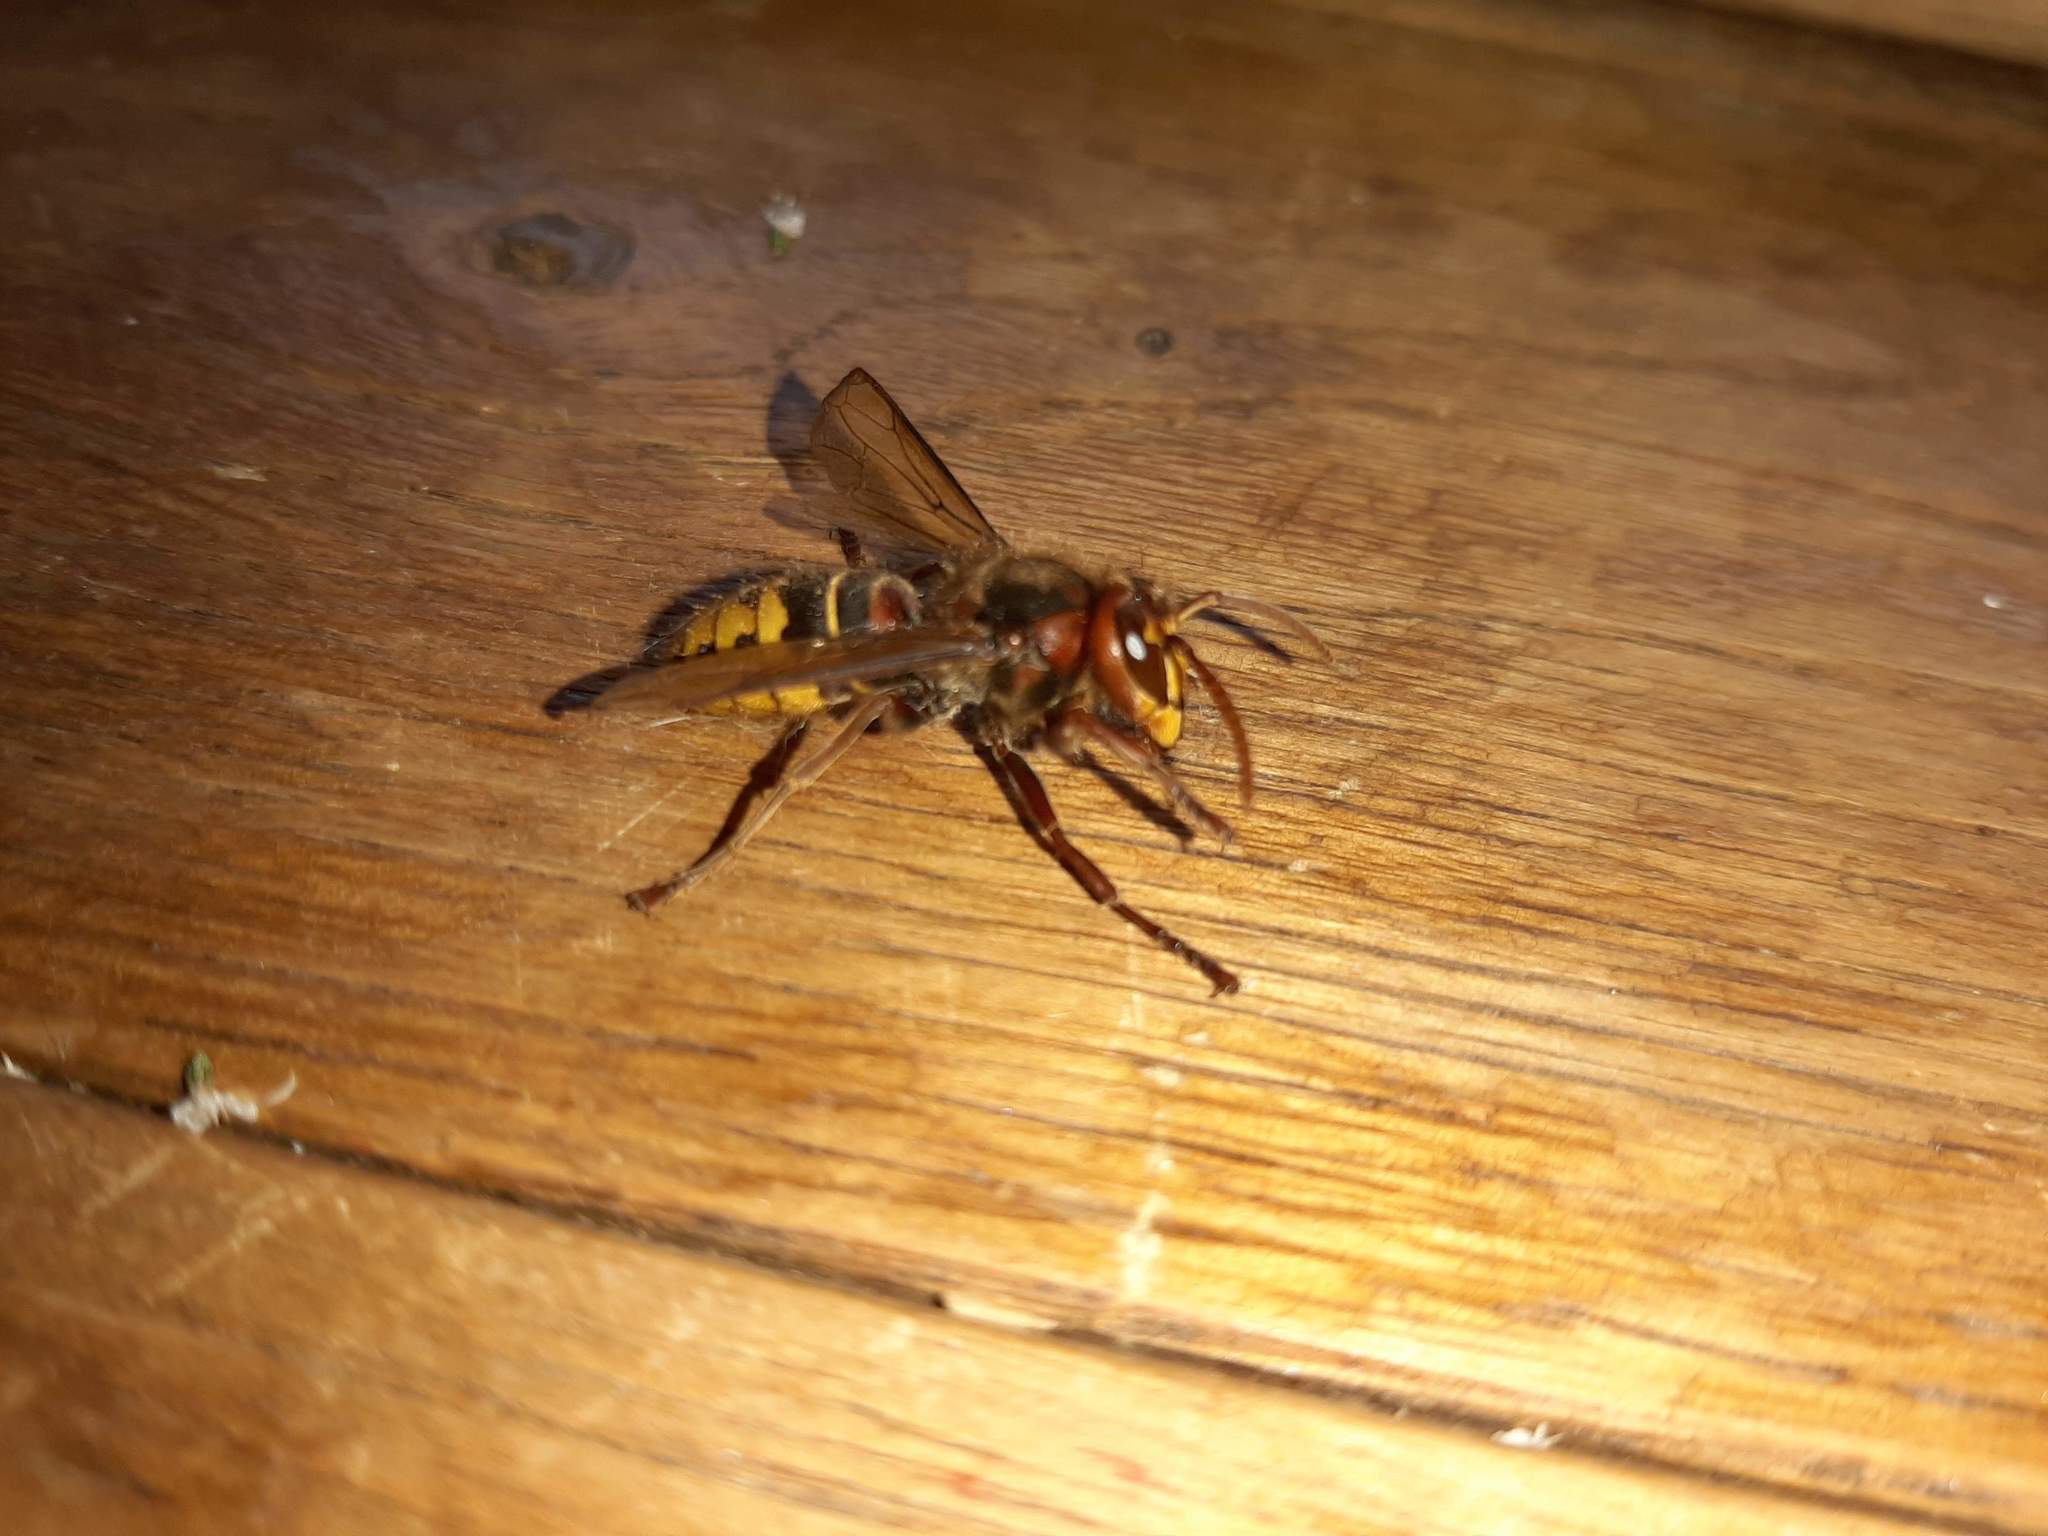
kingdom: Animalia
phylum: Arthropoda
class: Insecta
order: Hymenoptera
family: Vespidae
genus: Vespa
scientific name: Vespa crabro
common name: Hornet
